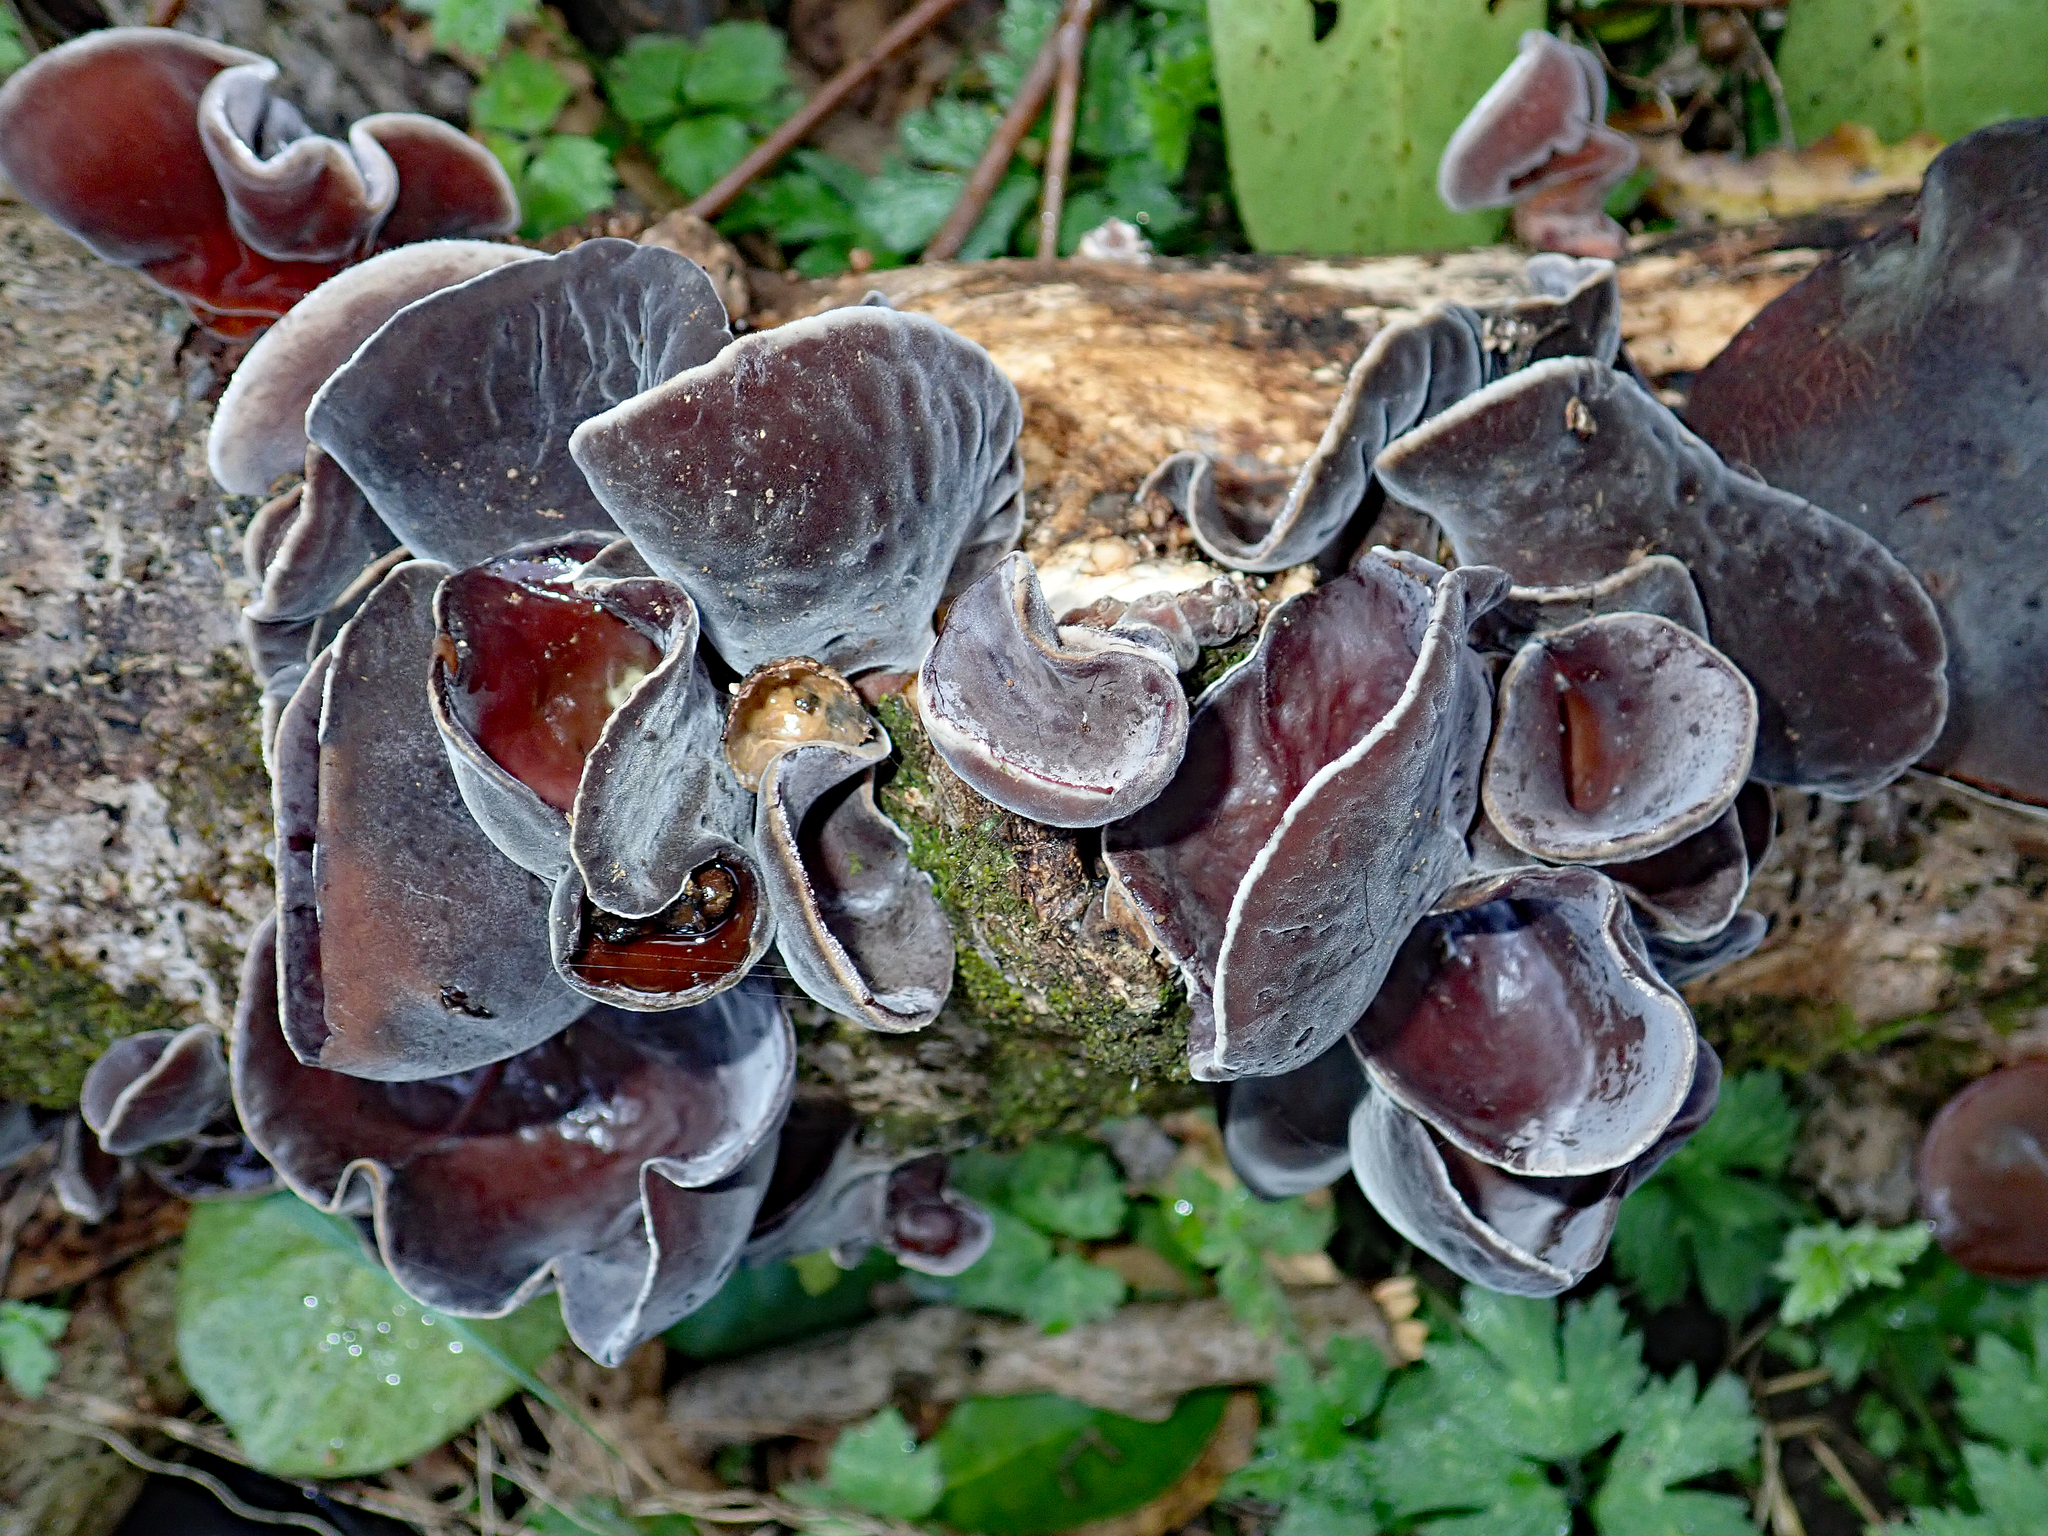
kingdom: Fungi
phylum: Basidiomycota
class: Agaricomycetes
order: Auriculariales
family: Auriculariaceae
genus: Auricularia
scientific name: Auricularia cornea
